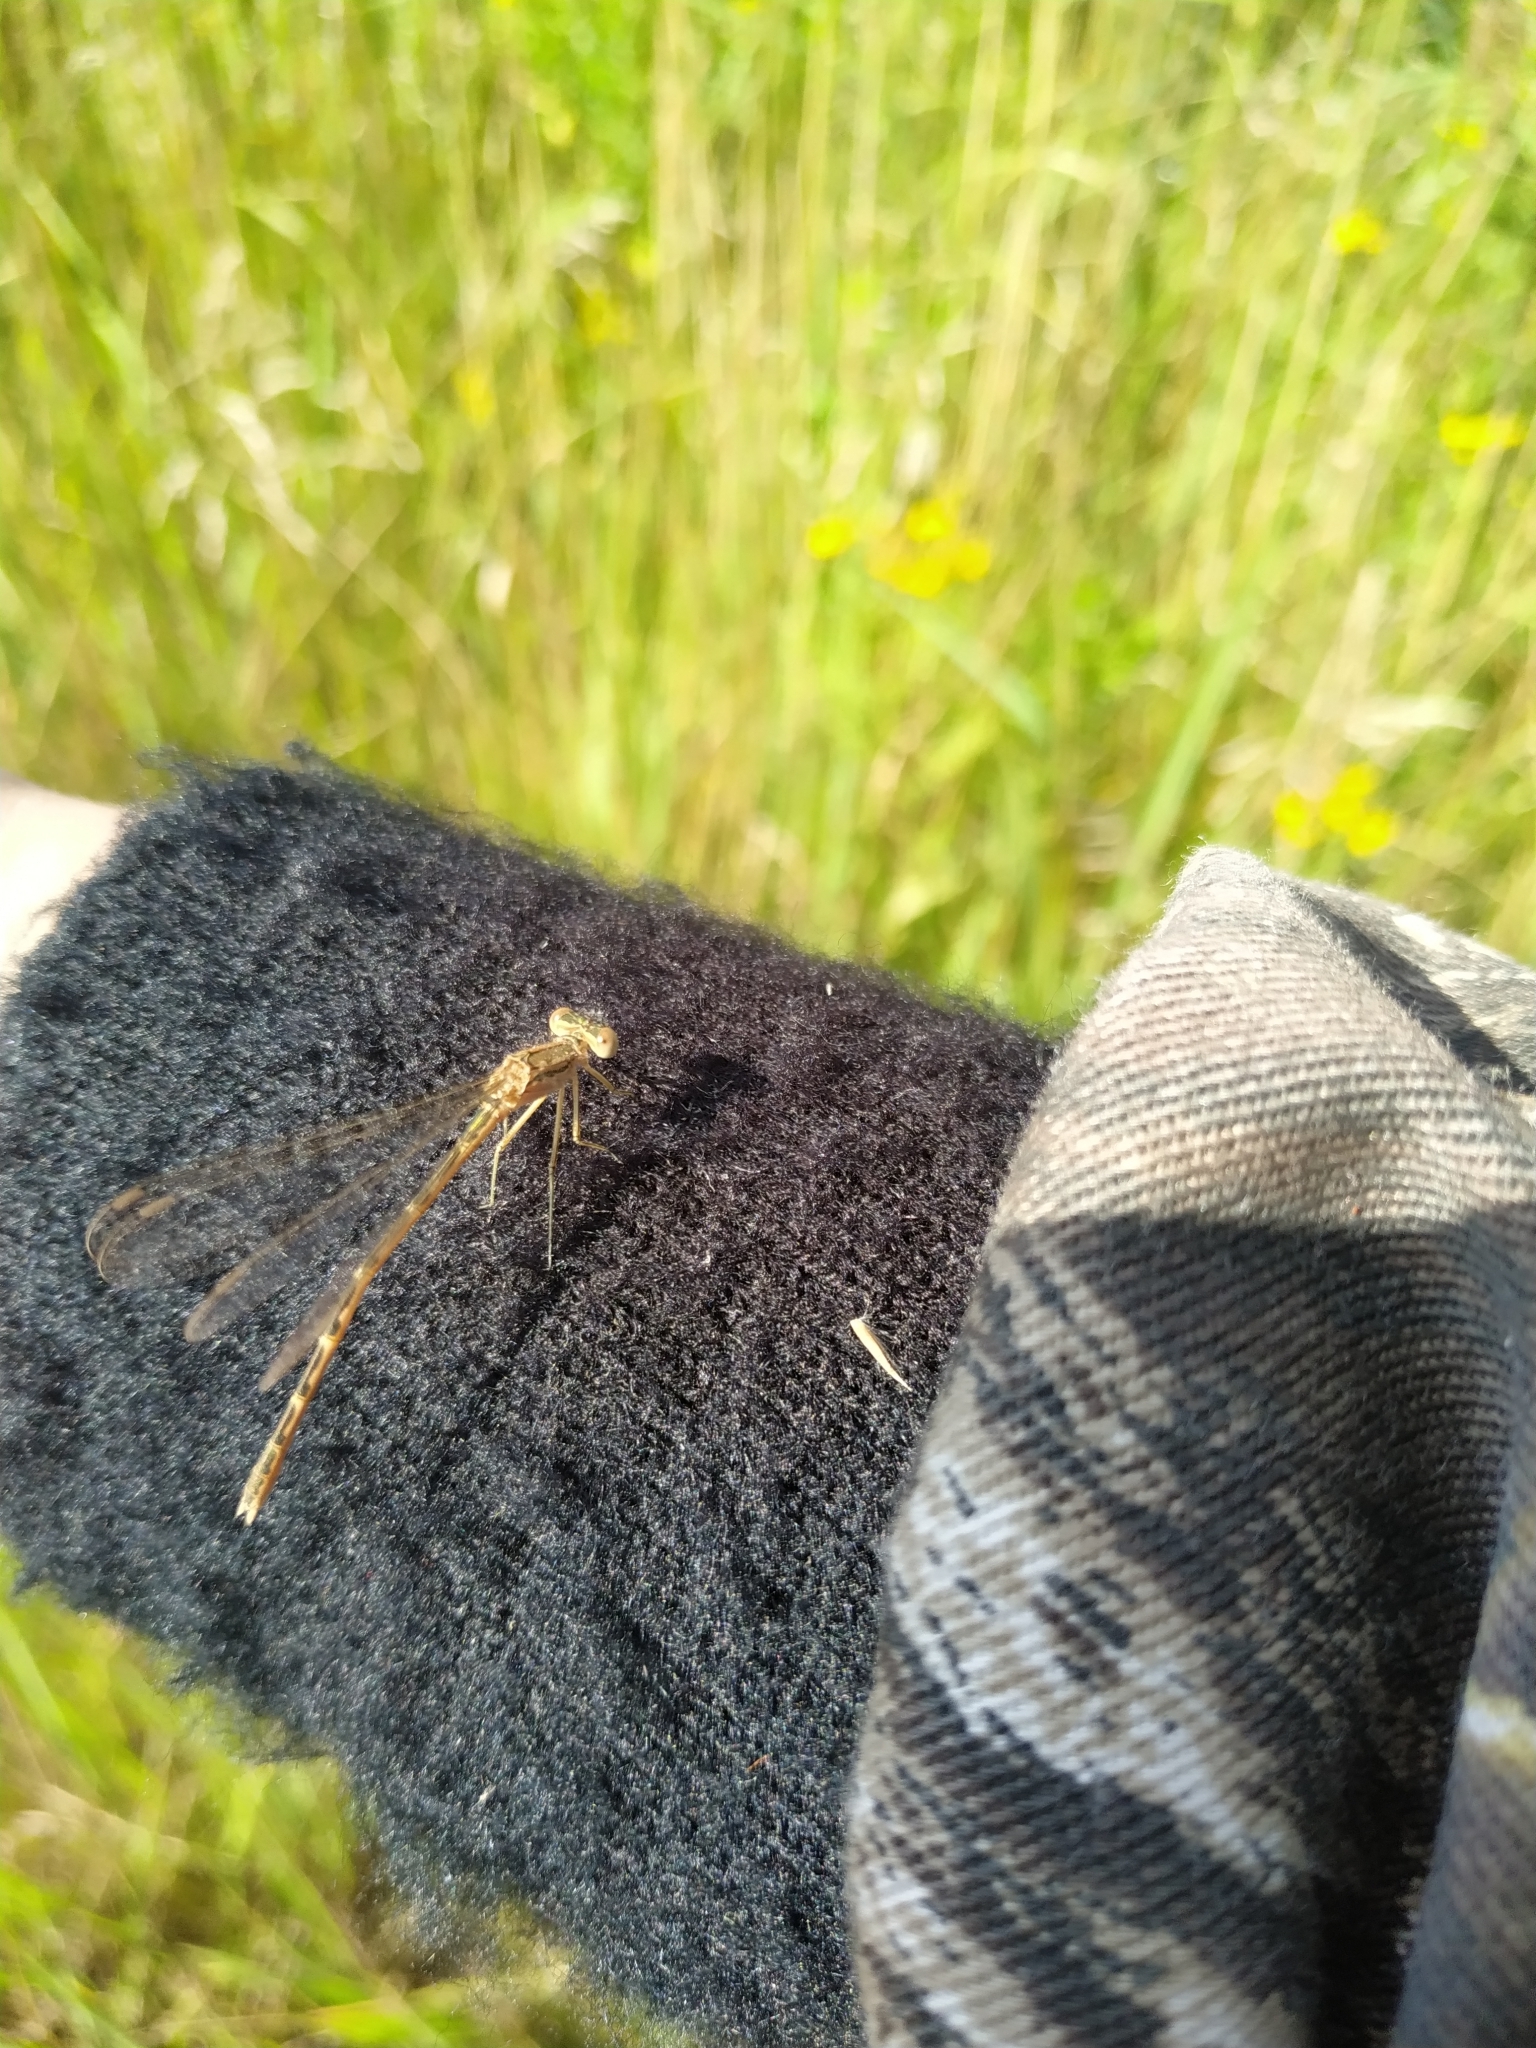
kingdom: Animalia
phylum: Arthropoda
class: Insecta
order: Odonata
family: Lestidae
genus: Sympecma
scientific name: Sympecma paedisca
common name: Siberian winter damsel
